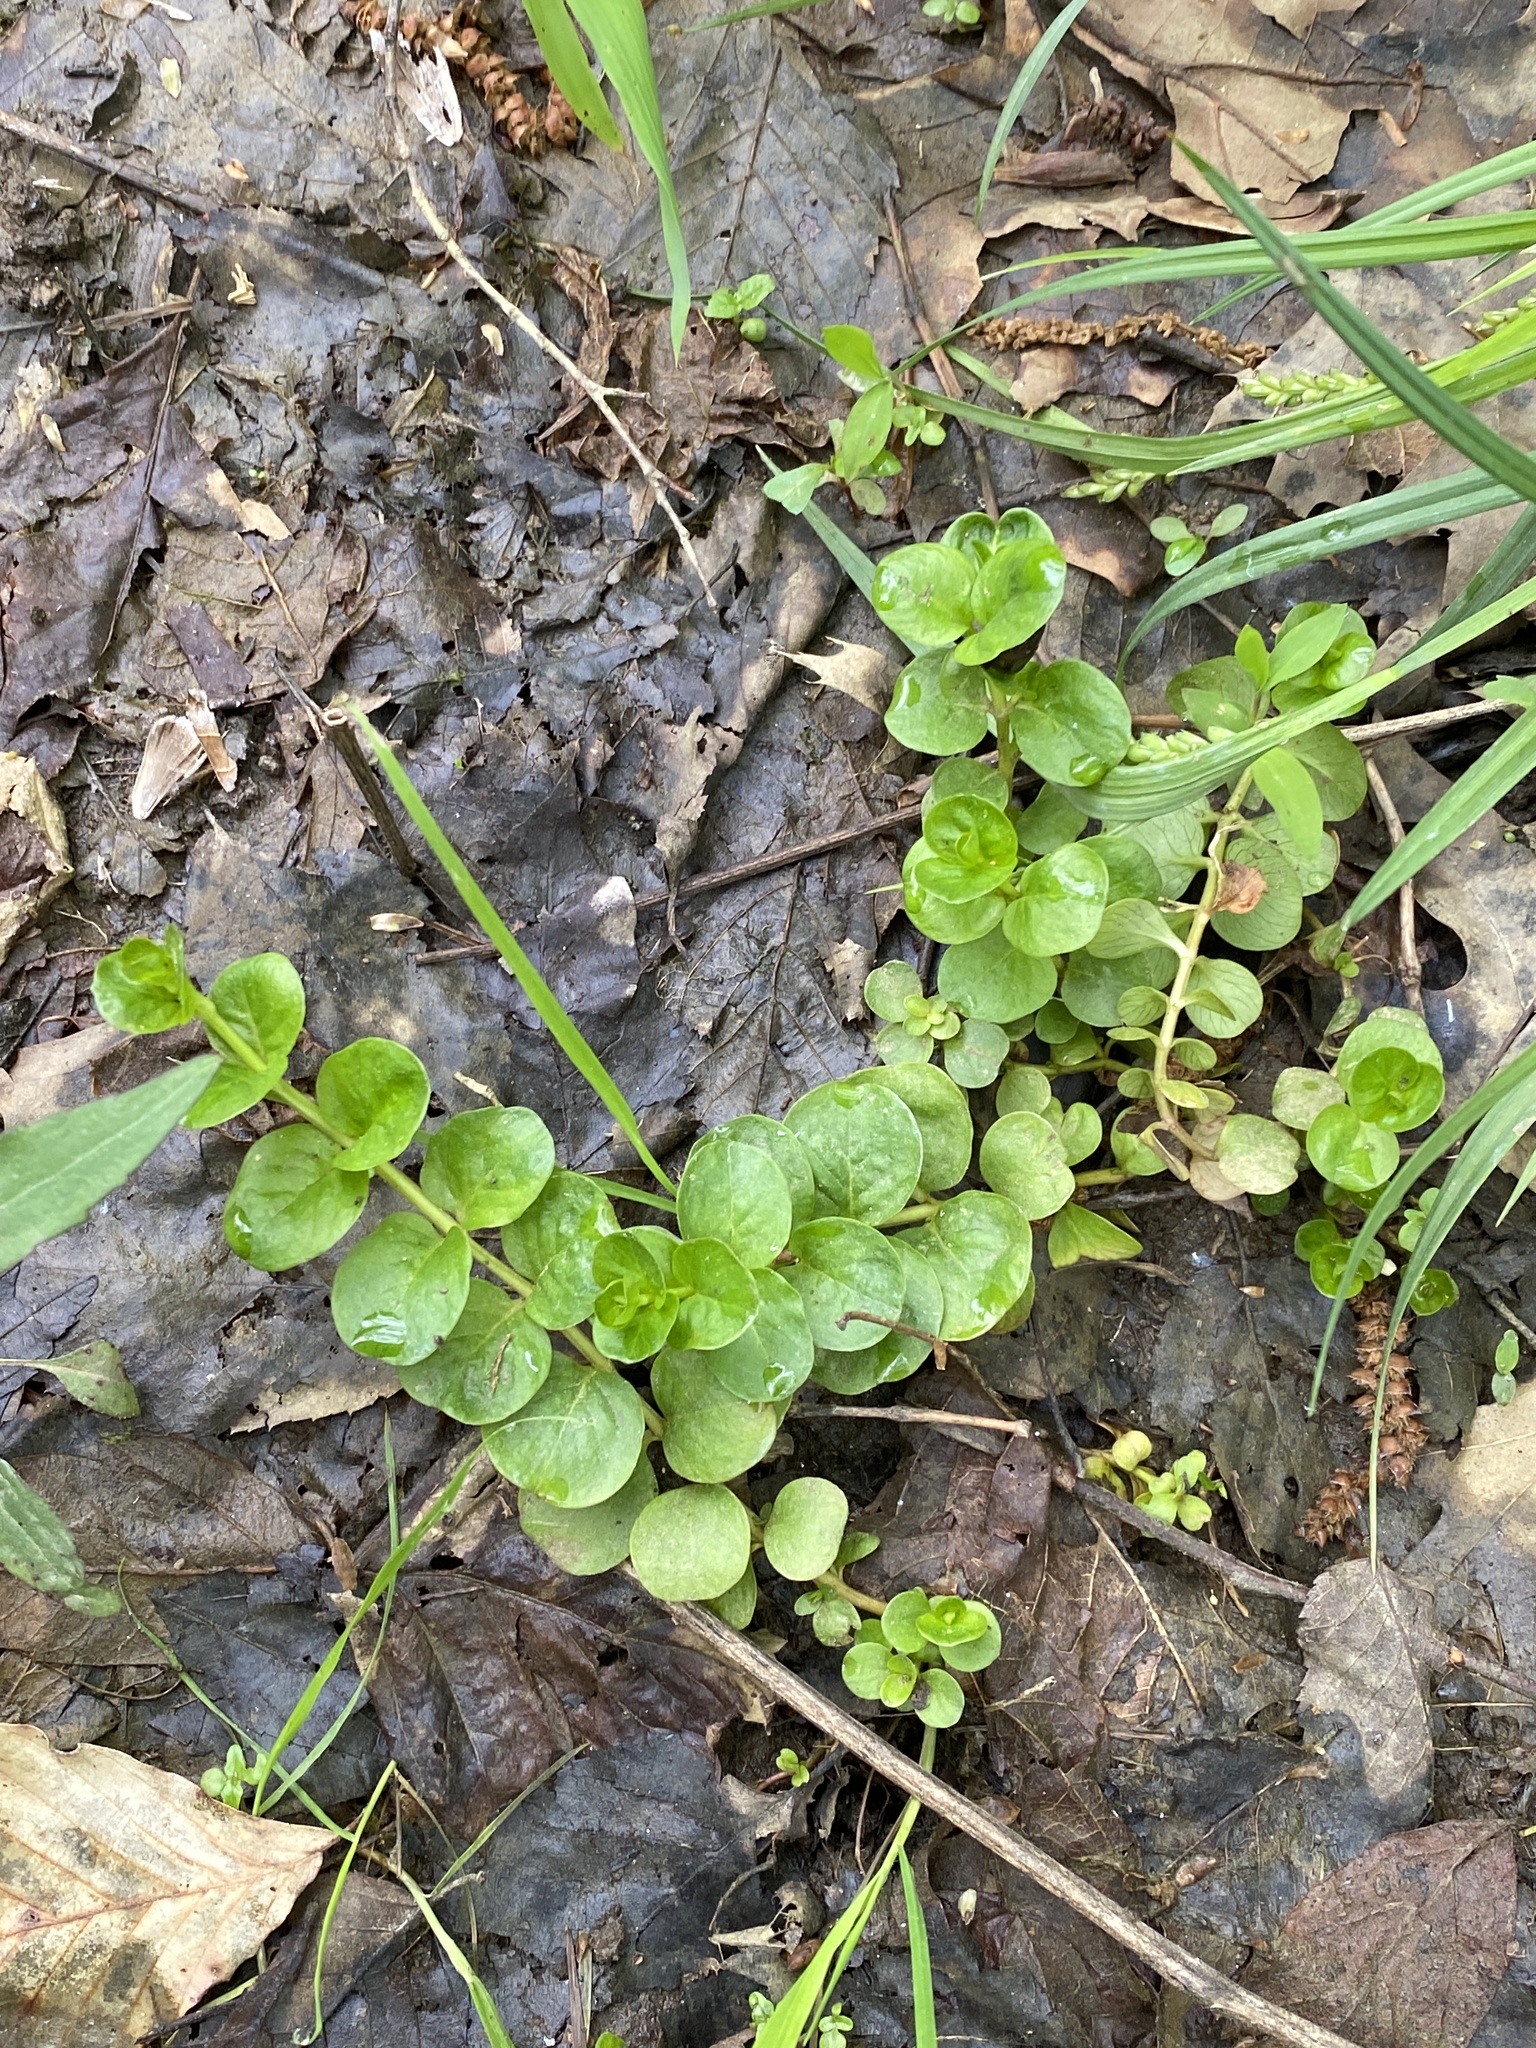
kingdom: Plantae
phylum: Tracheophyta
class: Magnoliopsida
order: Ericales
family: Primulaceae
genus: Lysimachia
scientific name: Lysimachia nummularia
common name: Moneywort
